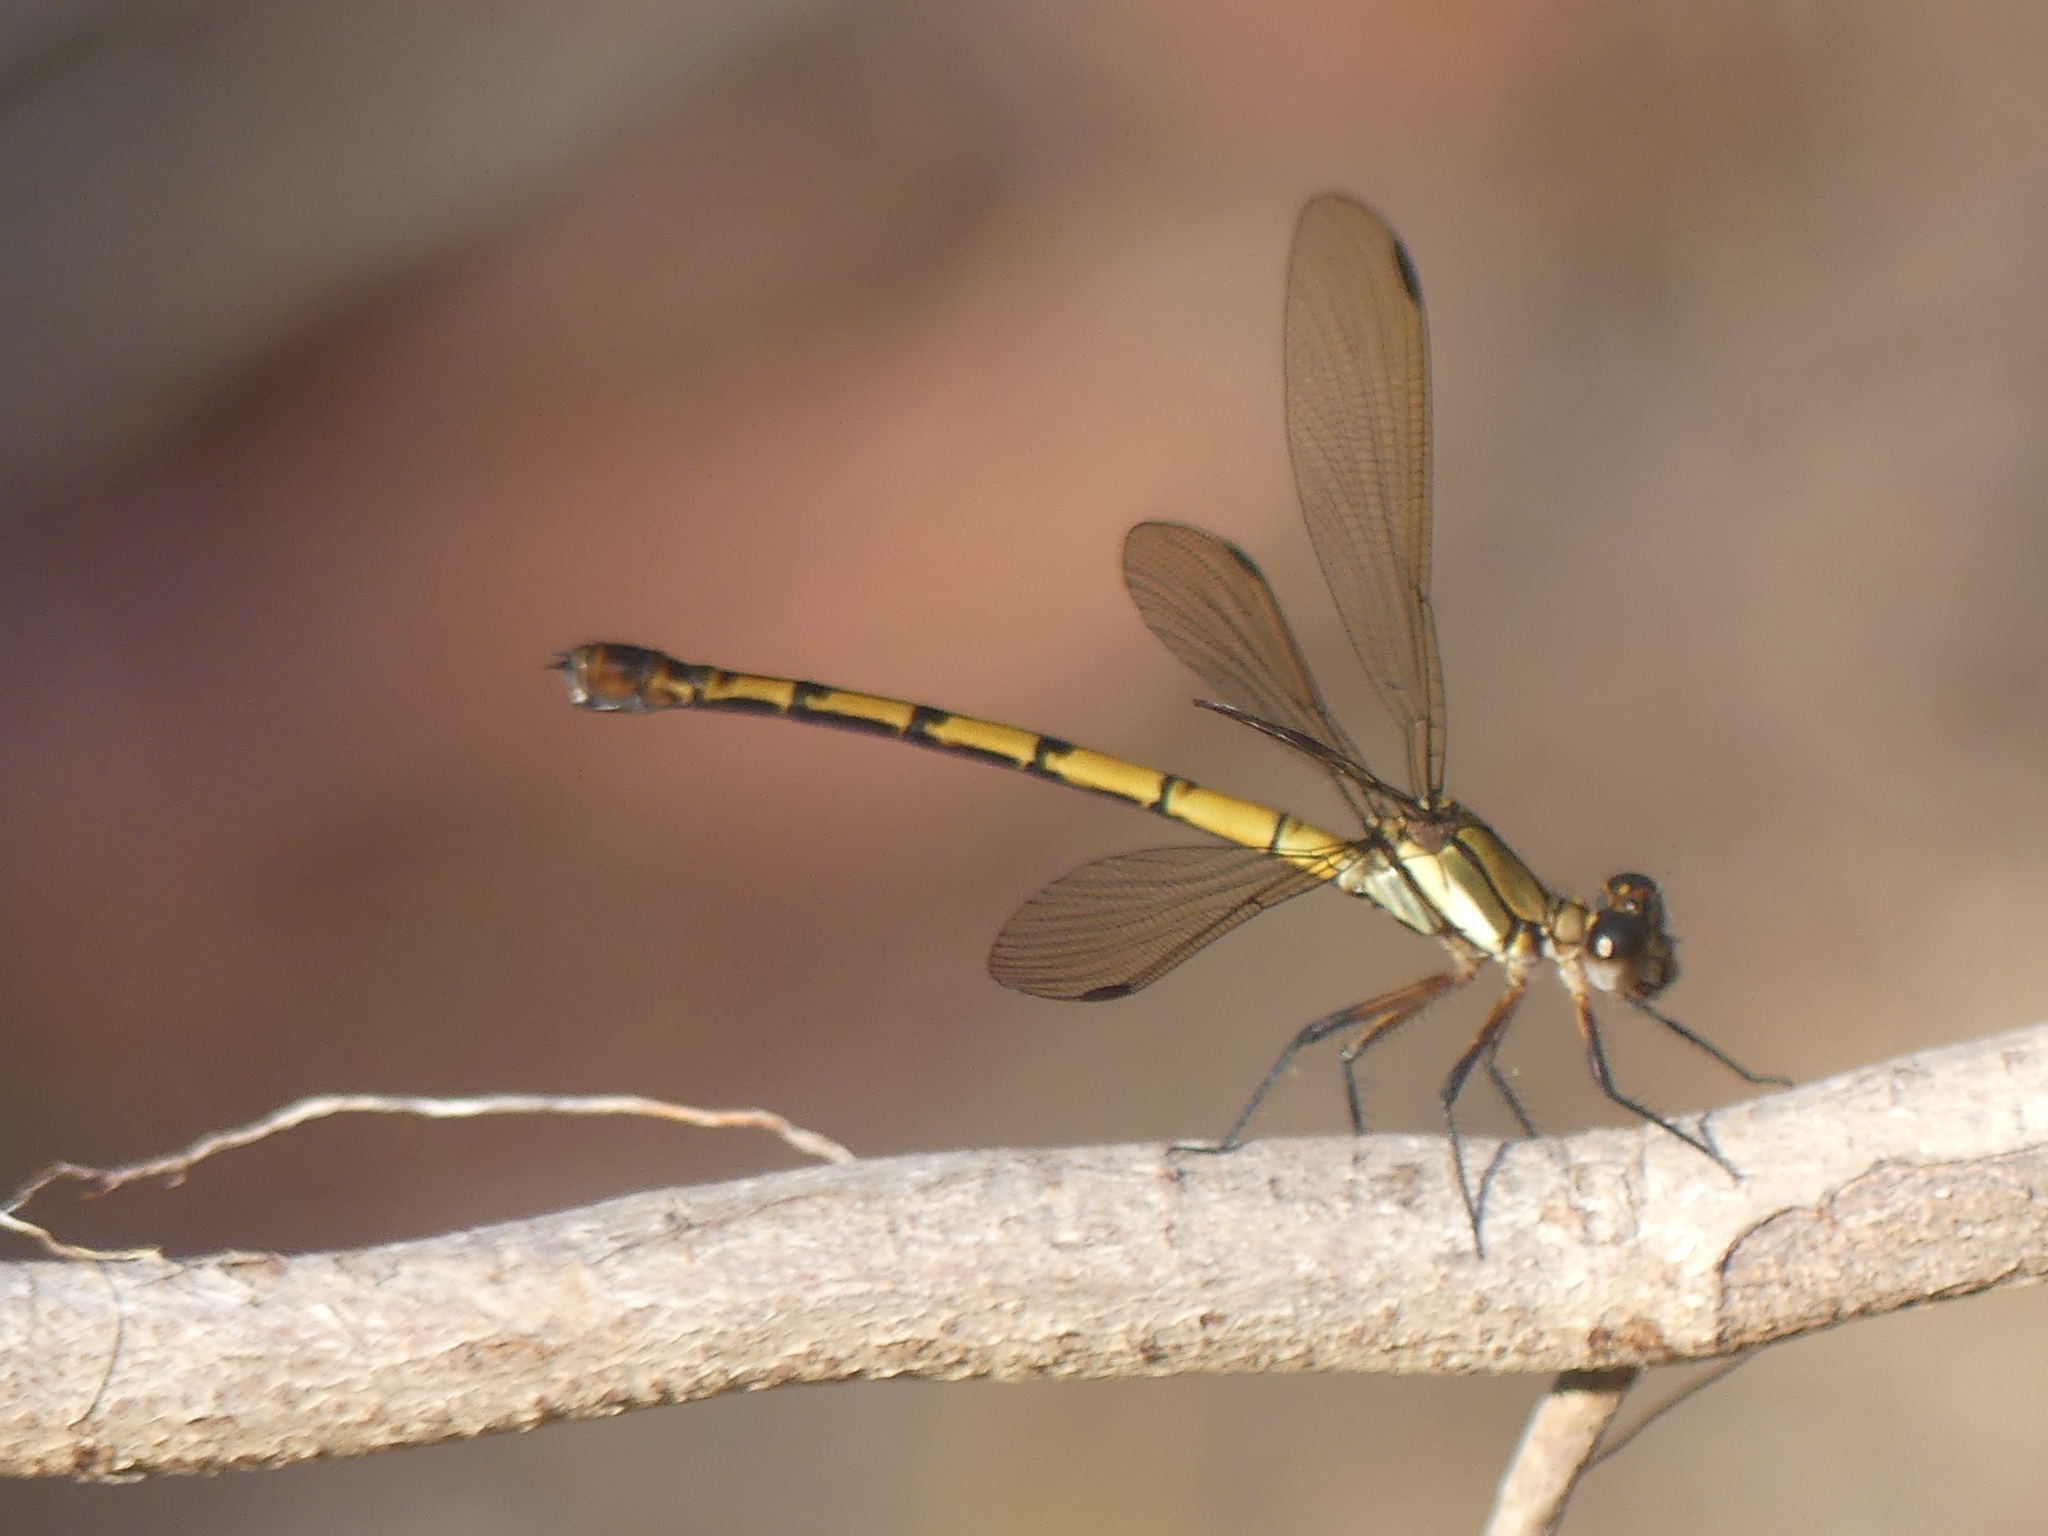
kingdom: Animalia
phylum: Arthropoda
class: Insecta
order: Odonata
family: Lestoideidae
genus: Diphlebia
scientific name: Diphlebia euphoeoides
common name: Tropical rockmaster
